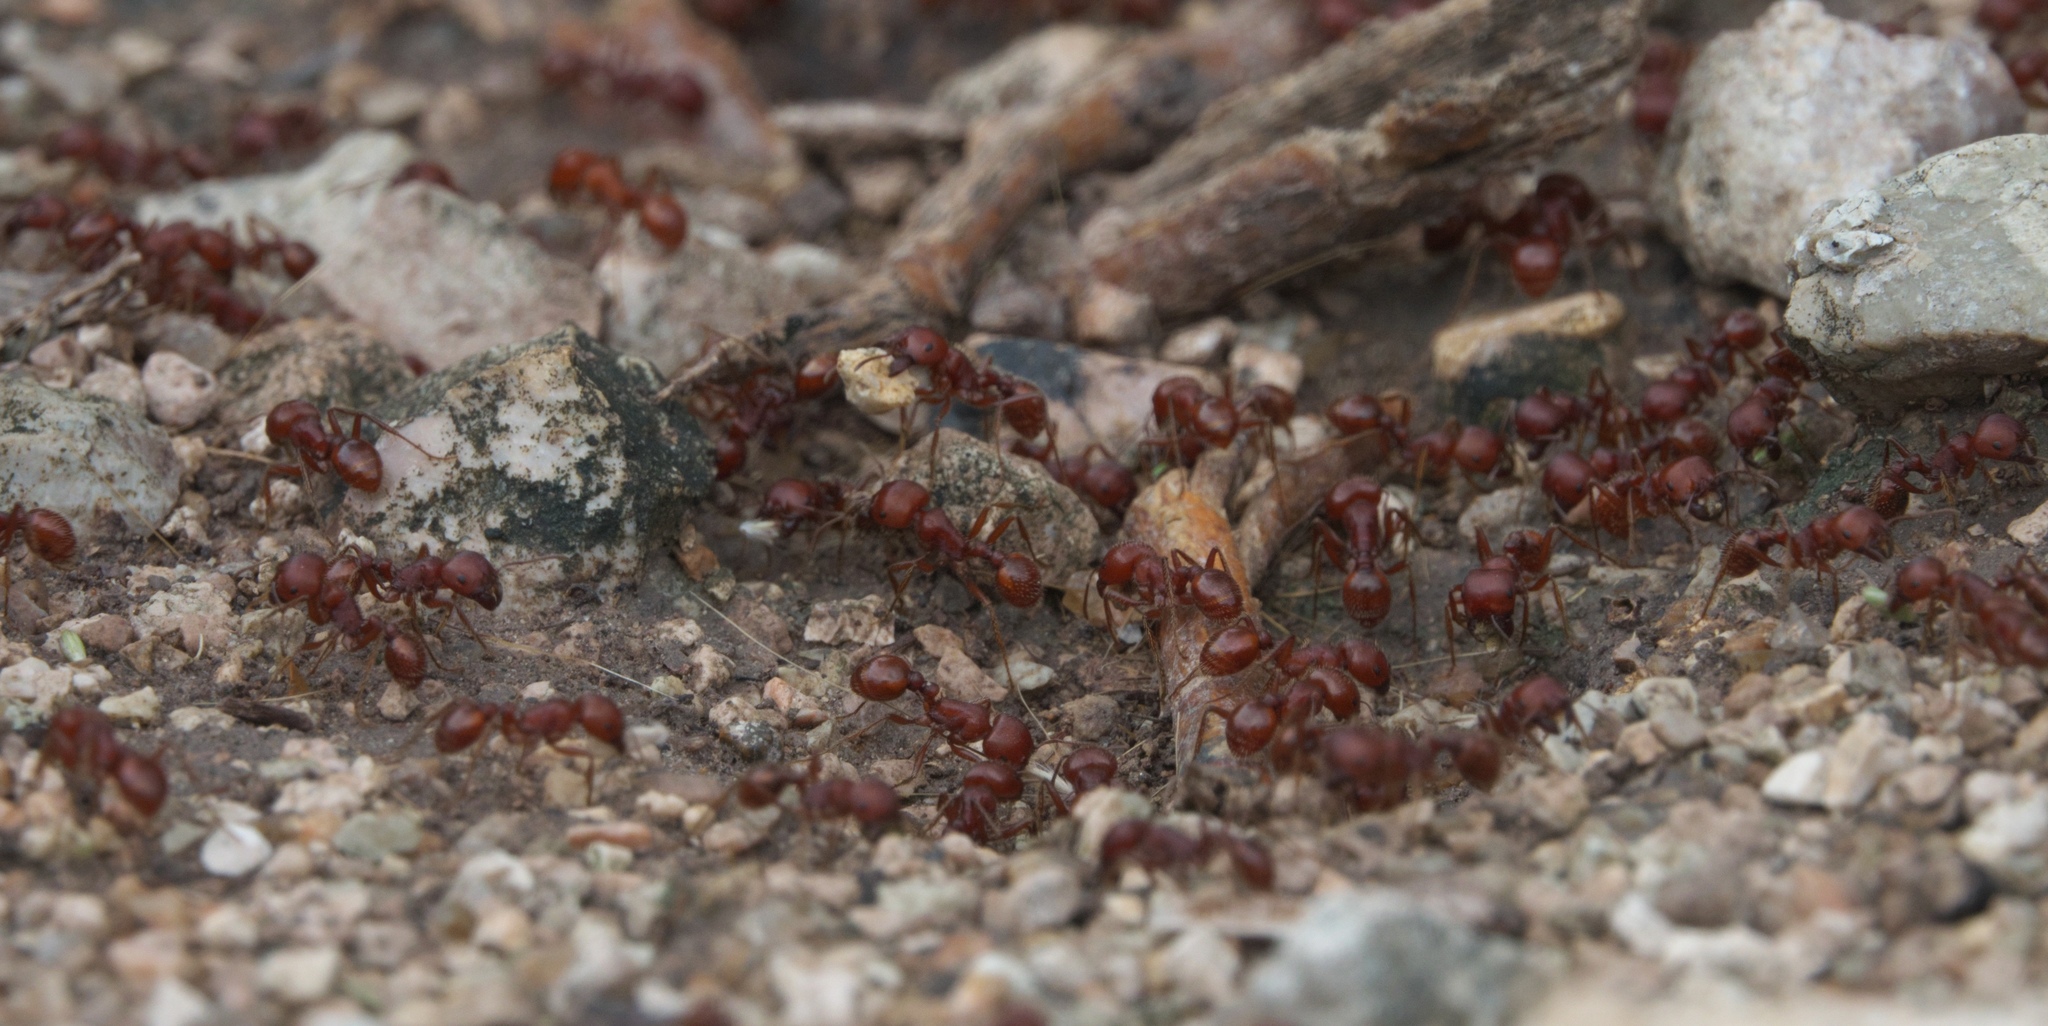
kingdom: Animalia
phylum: Arthropoda
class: Insecta
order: Hymenoptera
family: Formicidae
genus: Pogonomyrmex
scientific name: Pogonomyrmex barbatus
